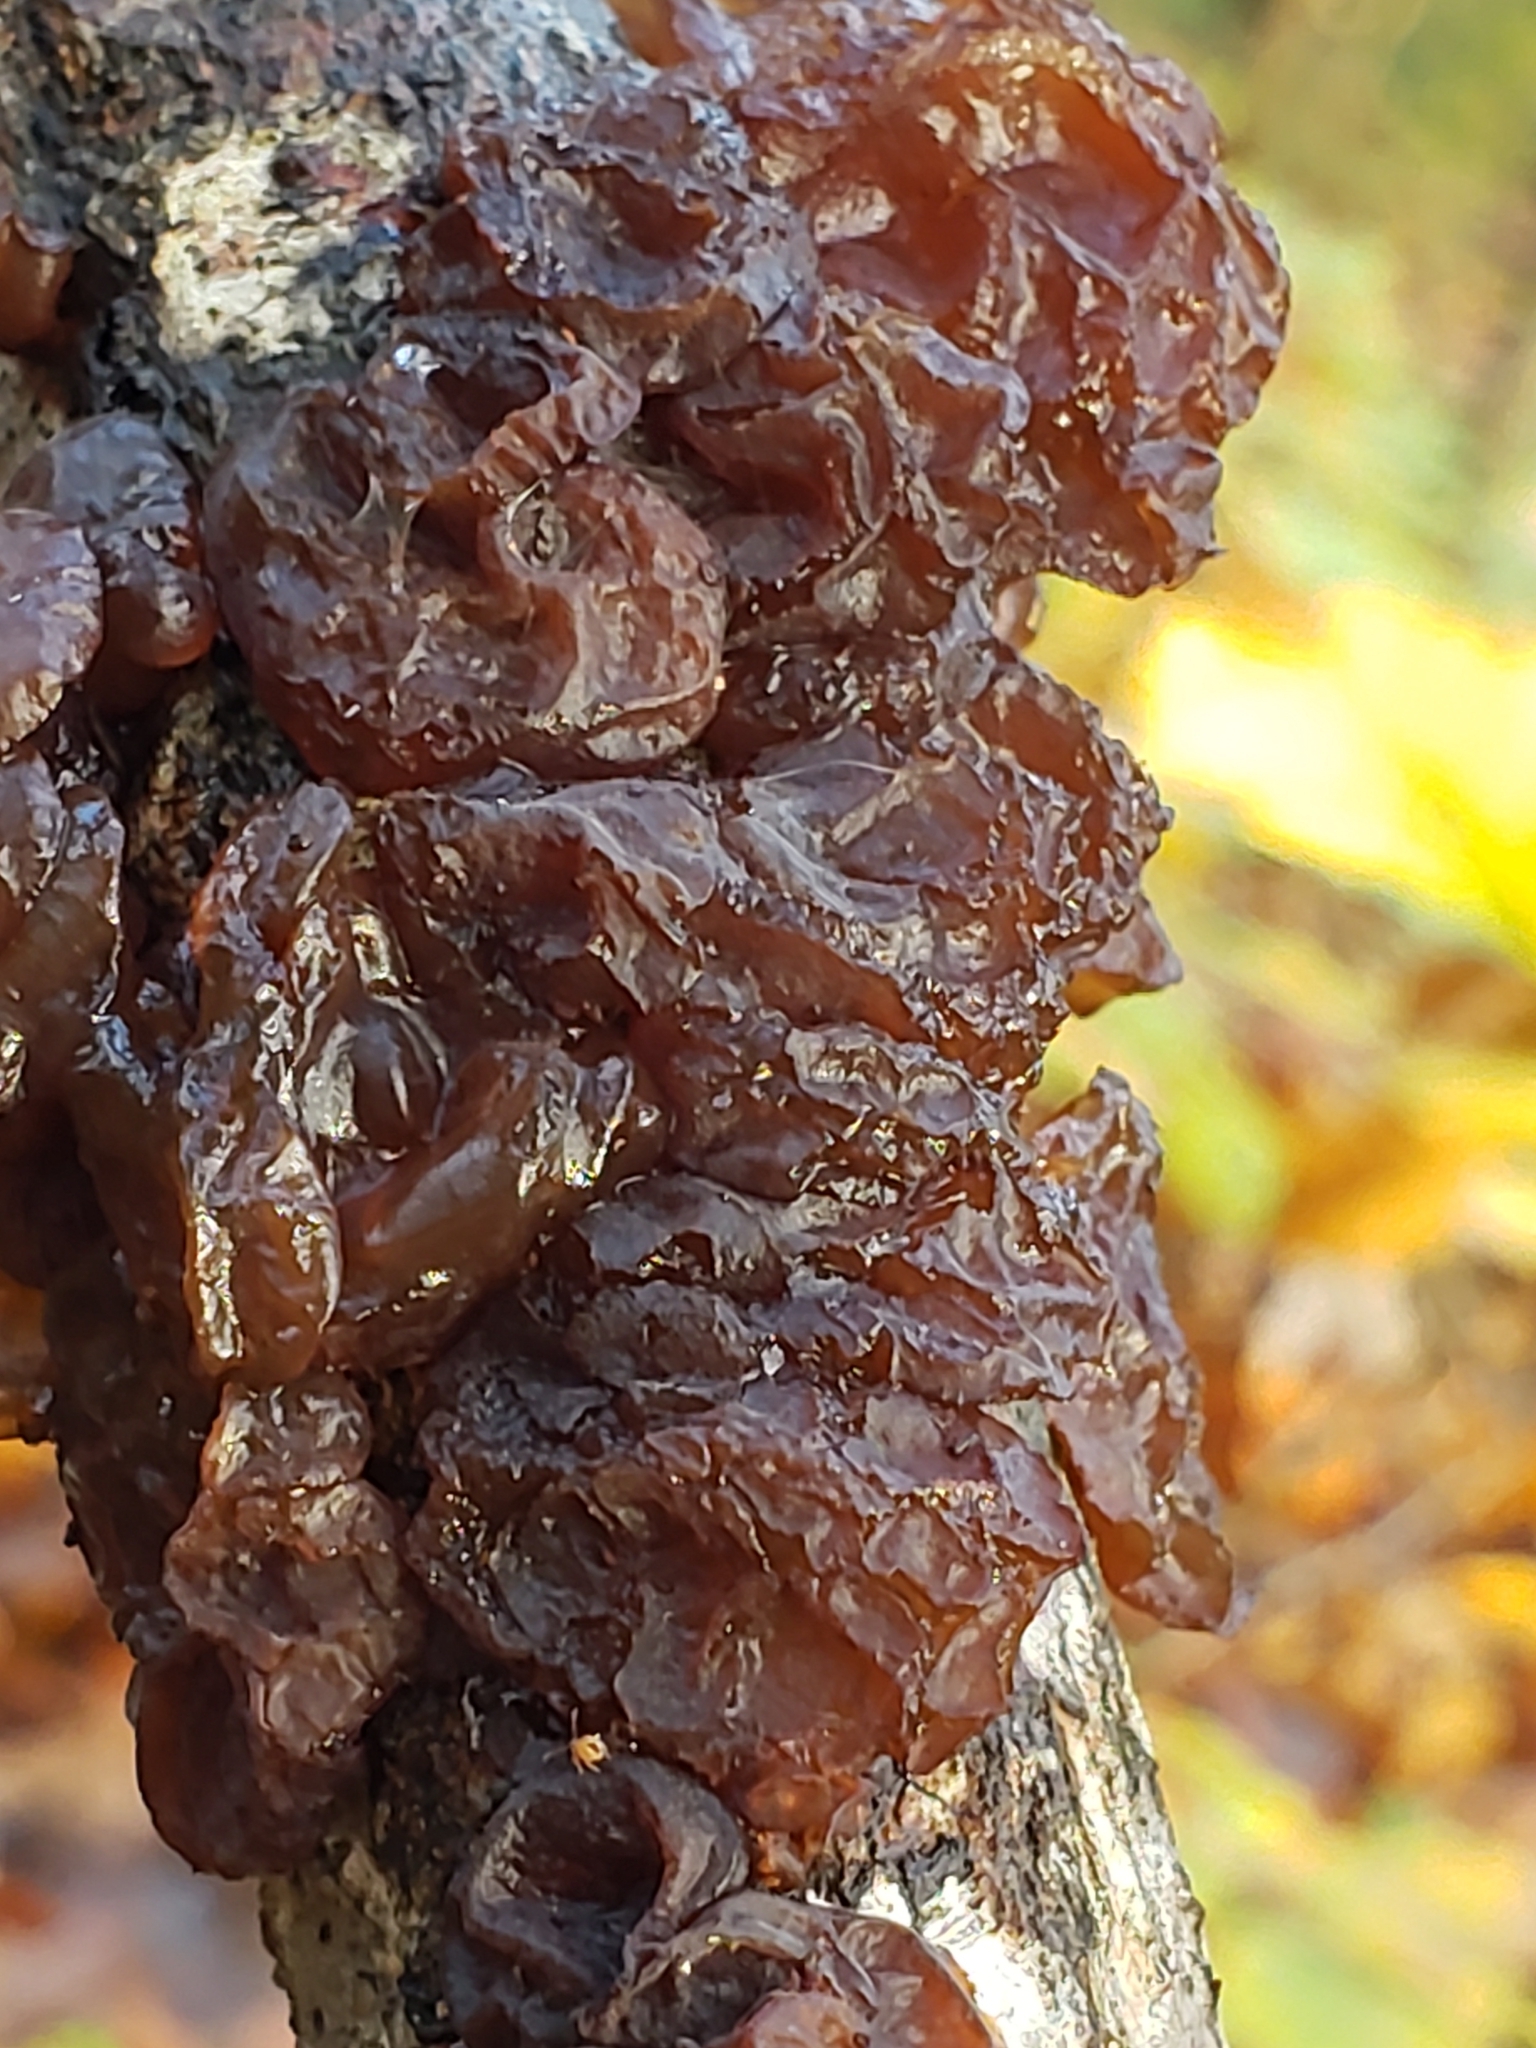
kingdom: Fungi
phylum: Basidiomycota
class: Agaricomycetes
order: Auriculariales
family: Auriculariaceae
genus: Exidia
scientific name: Exidia
